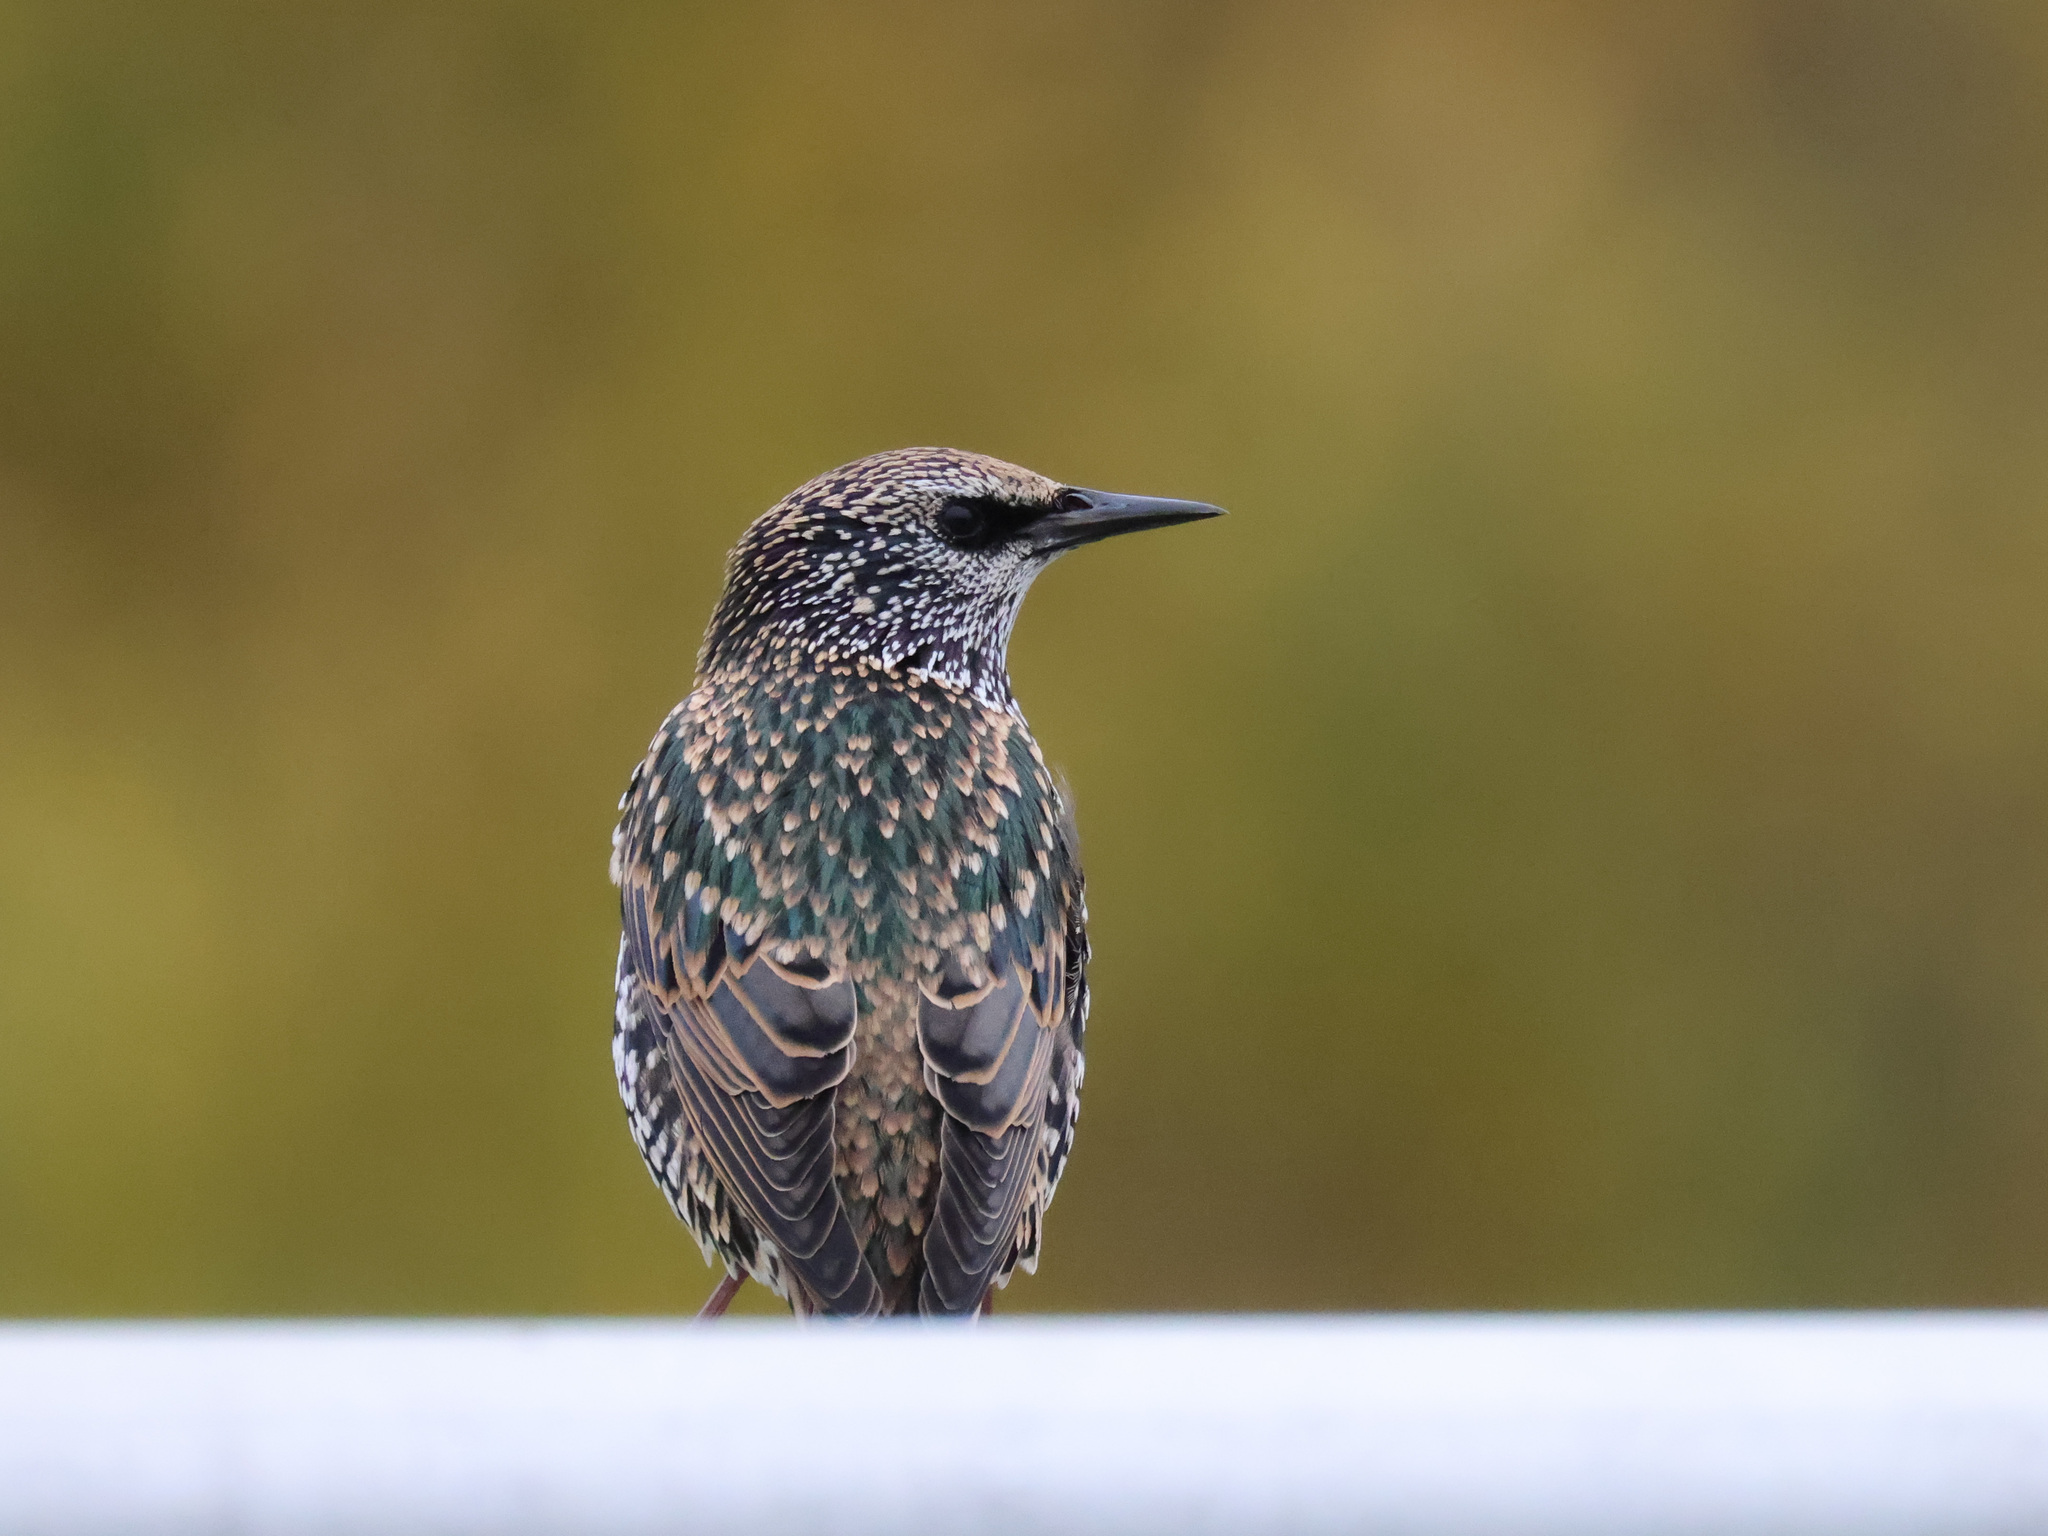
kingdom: Animalia
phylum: Chordata
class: Aves
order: Passeriformes
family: Sturnidae
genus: Sturnus
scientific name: Sturnus vulgaris
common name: Common starling
